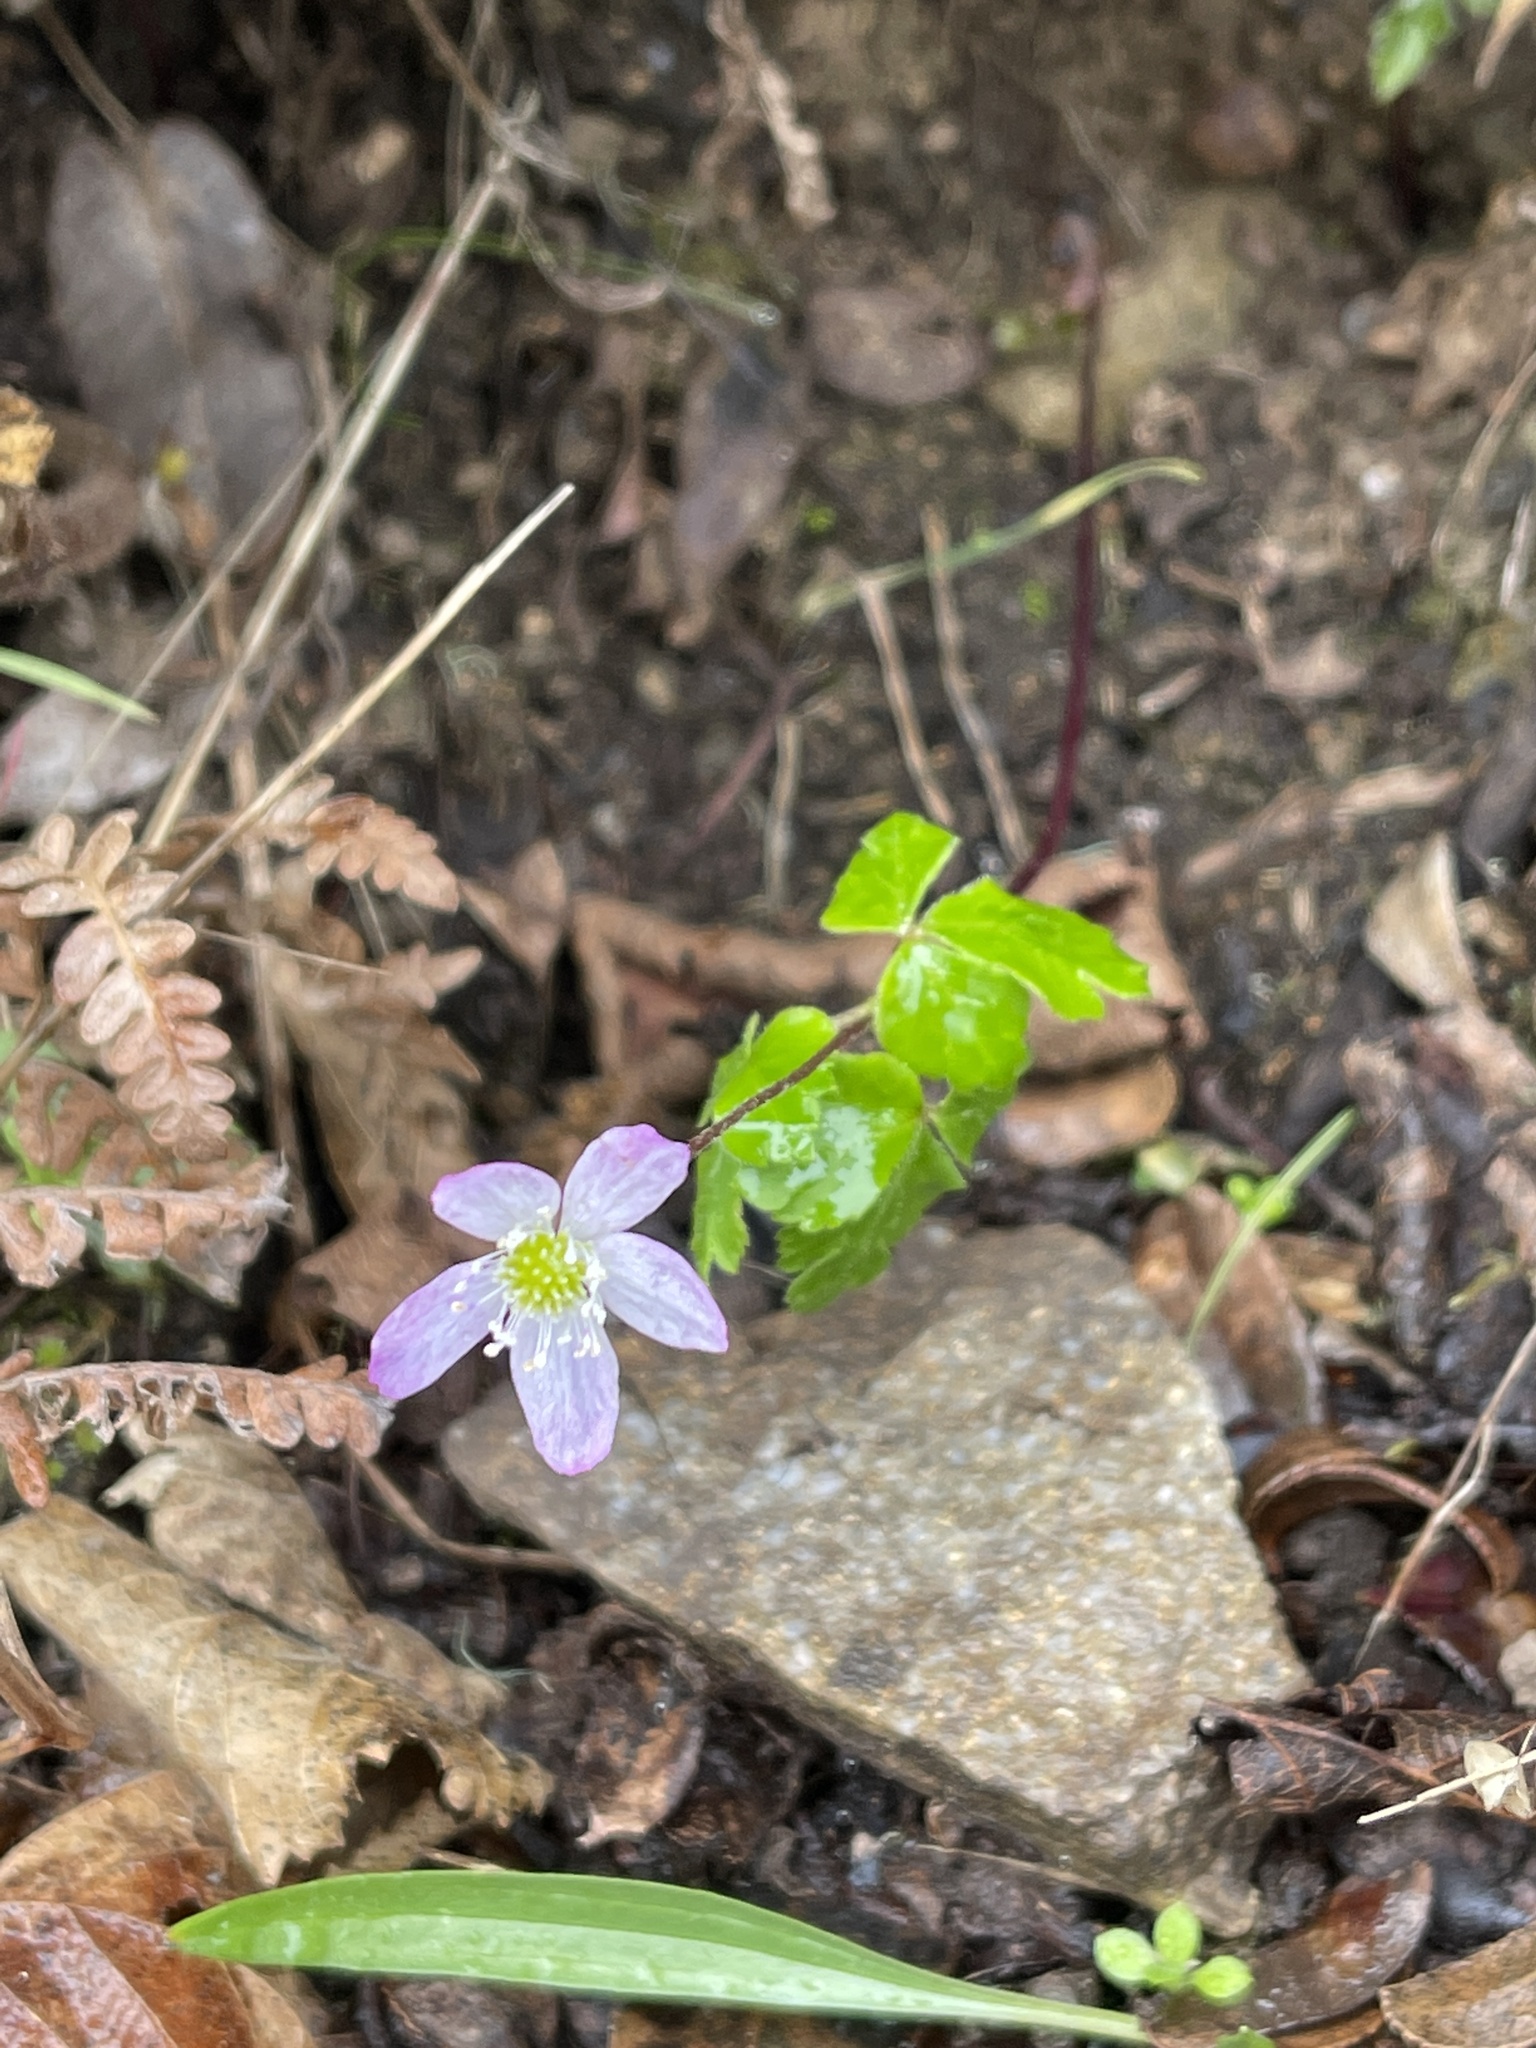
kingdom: Plantae
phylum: Tracheophyta
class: Magnoliopsida
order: Ranunculales
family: Ranunculaceae
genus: Anemone
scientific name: Anemone
